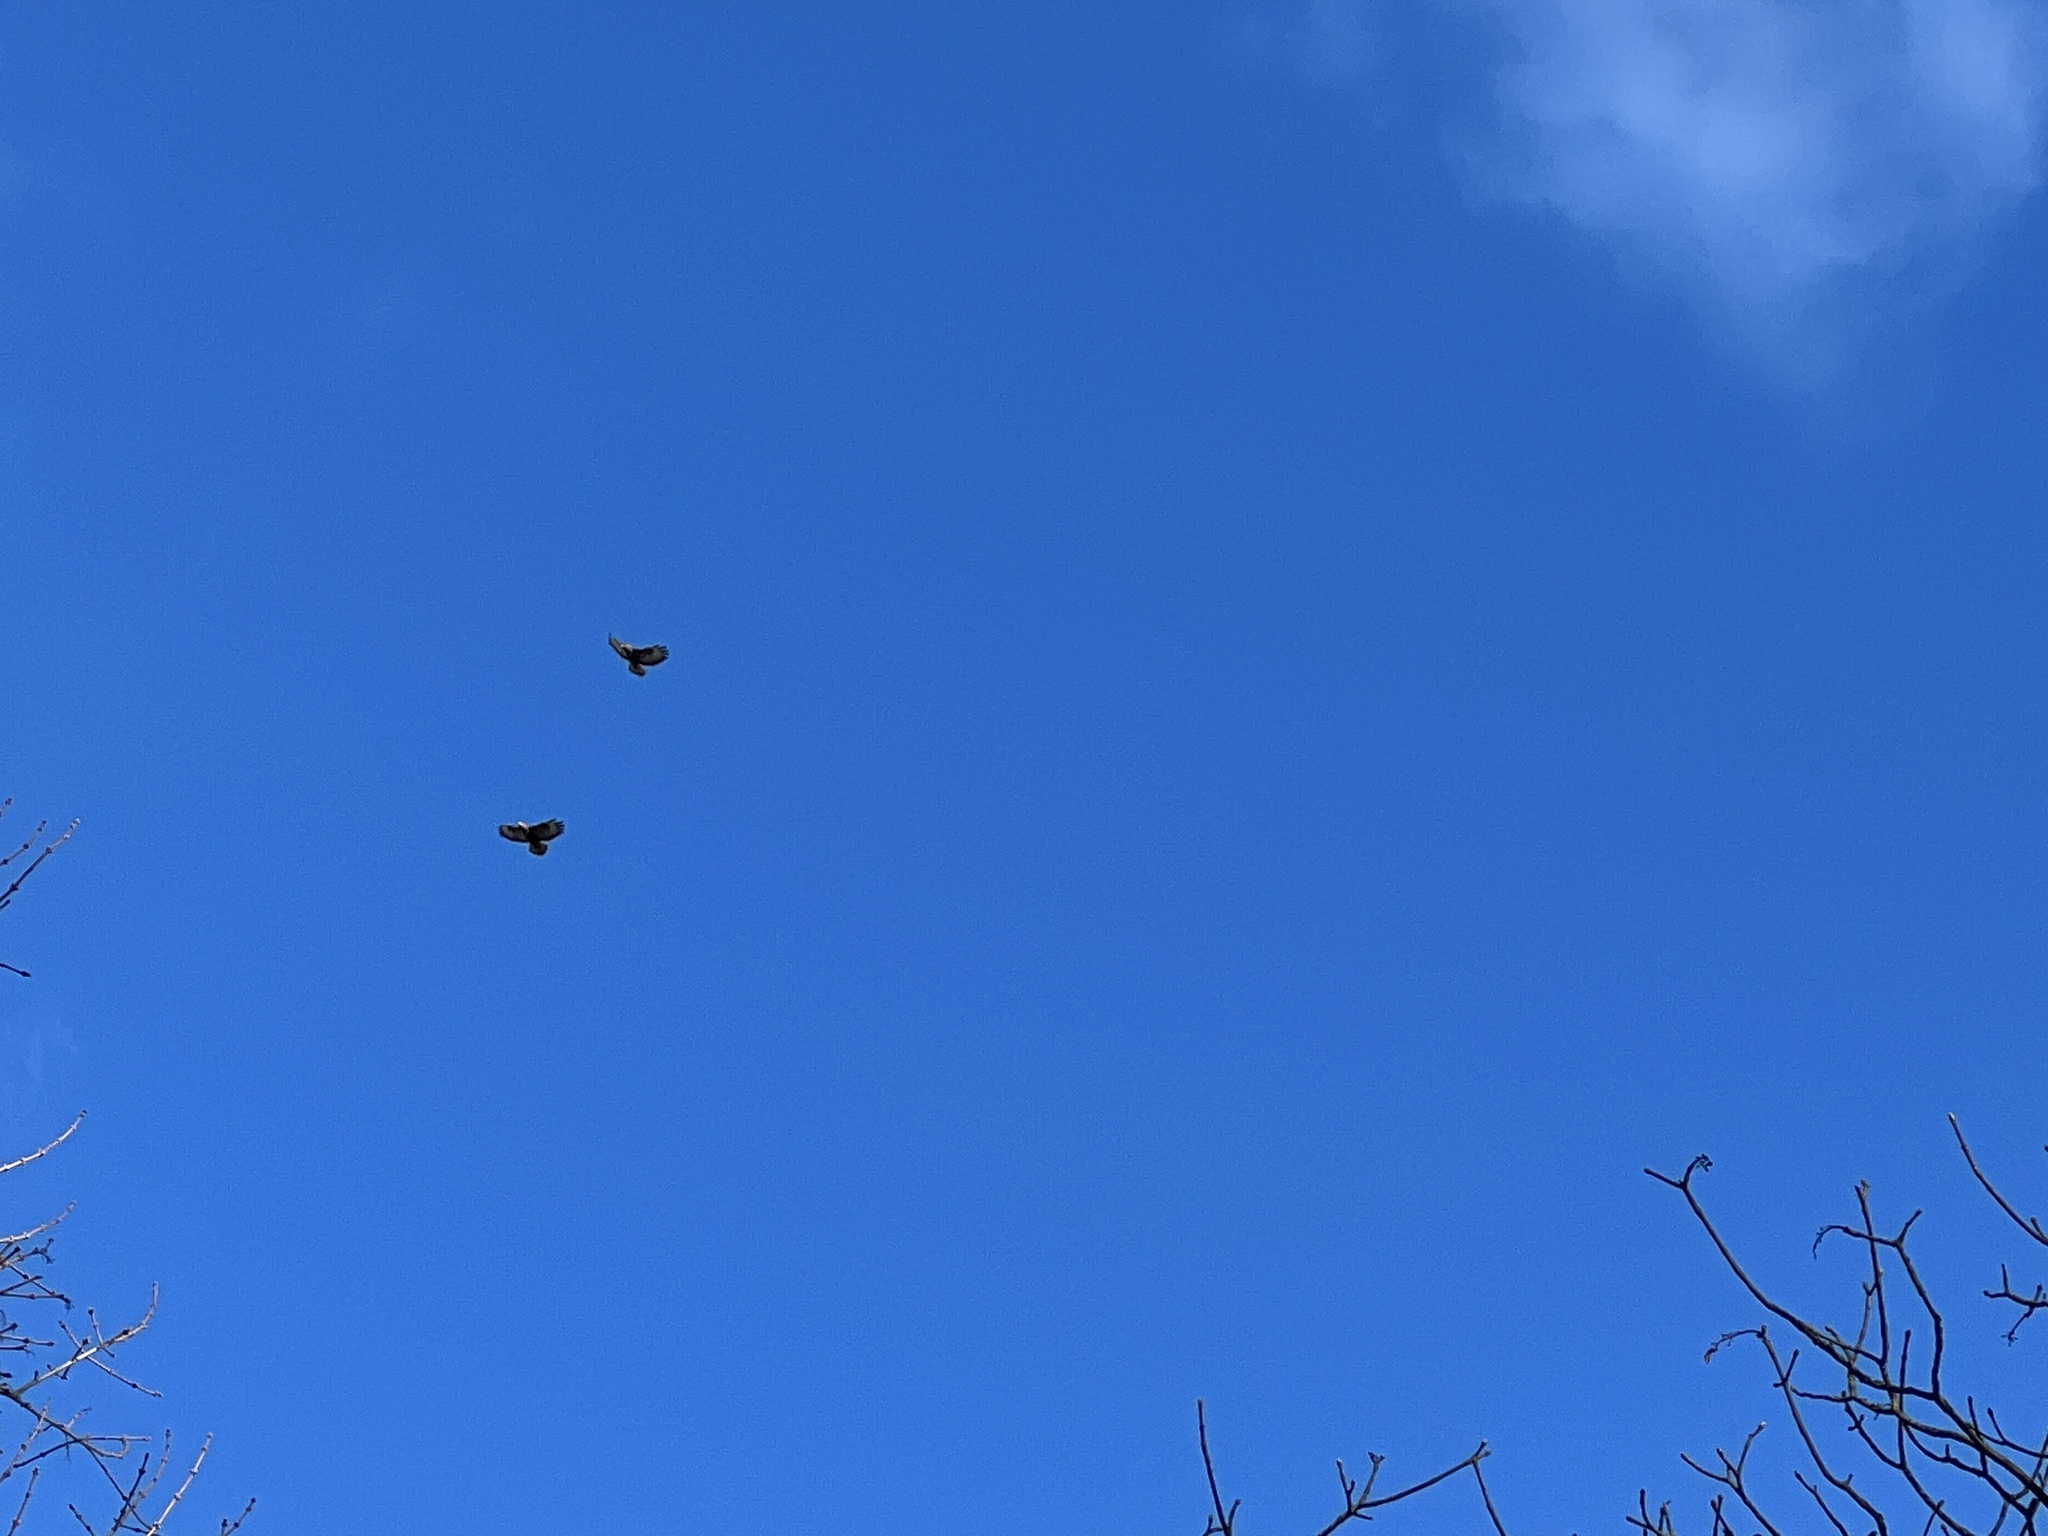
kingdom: Animalia
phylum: Chordata
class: Aves
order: Accipitriformes
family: Accipitridae
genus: Buteo
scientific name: Buteo buteo
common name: Common buzzard
